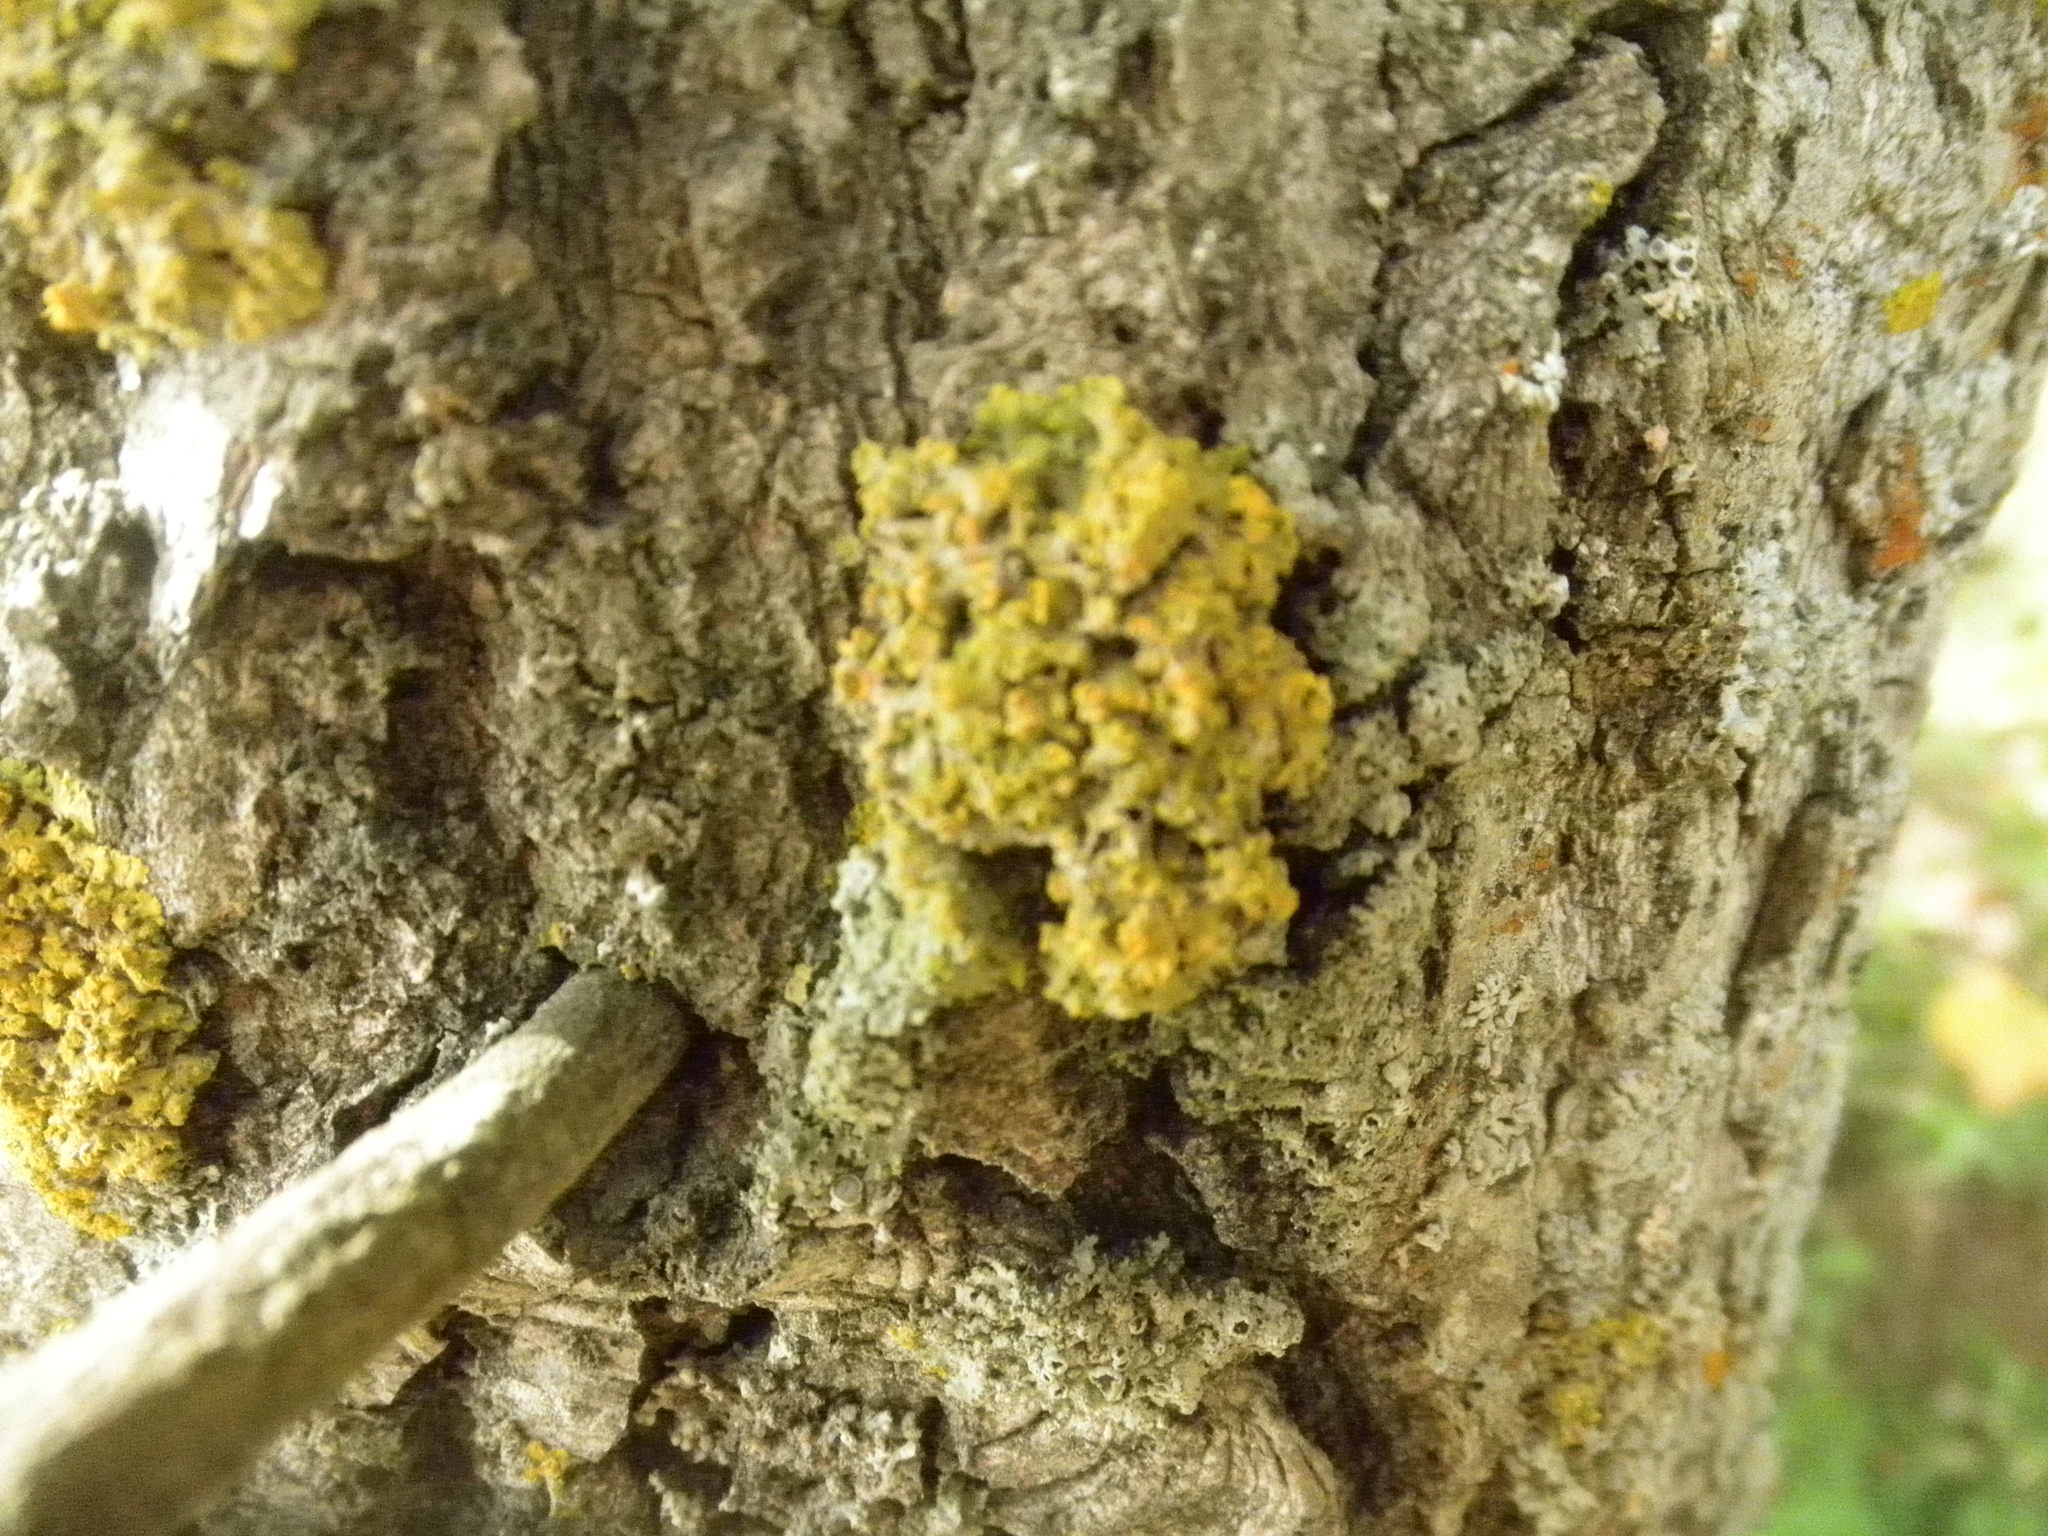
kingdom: Fungi
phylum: Ascomycota
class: Lecanoromycetes
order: Teloschistales
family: Teloschistaceae
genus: Oxneria
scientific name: Oxneria fallax
